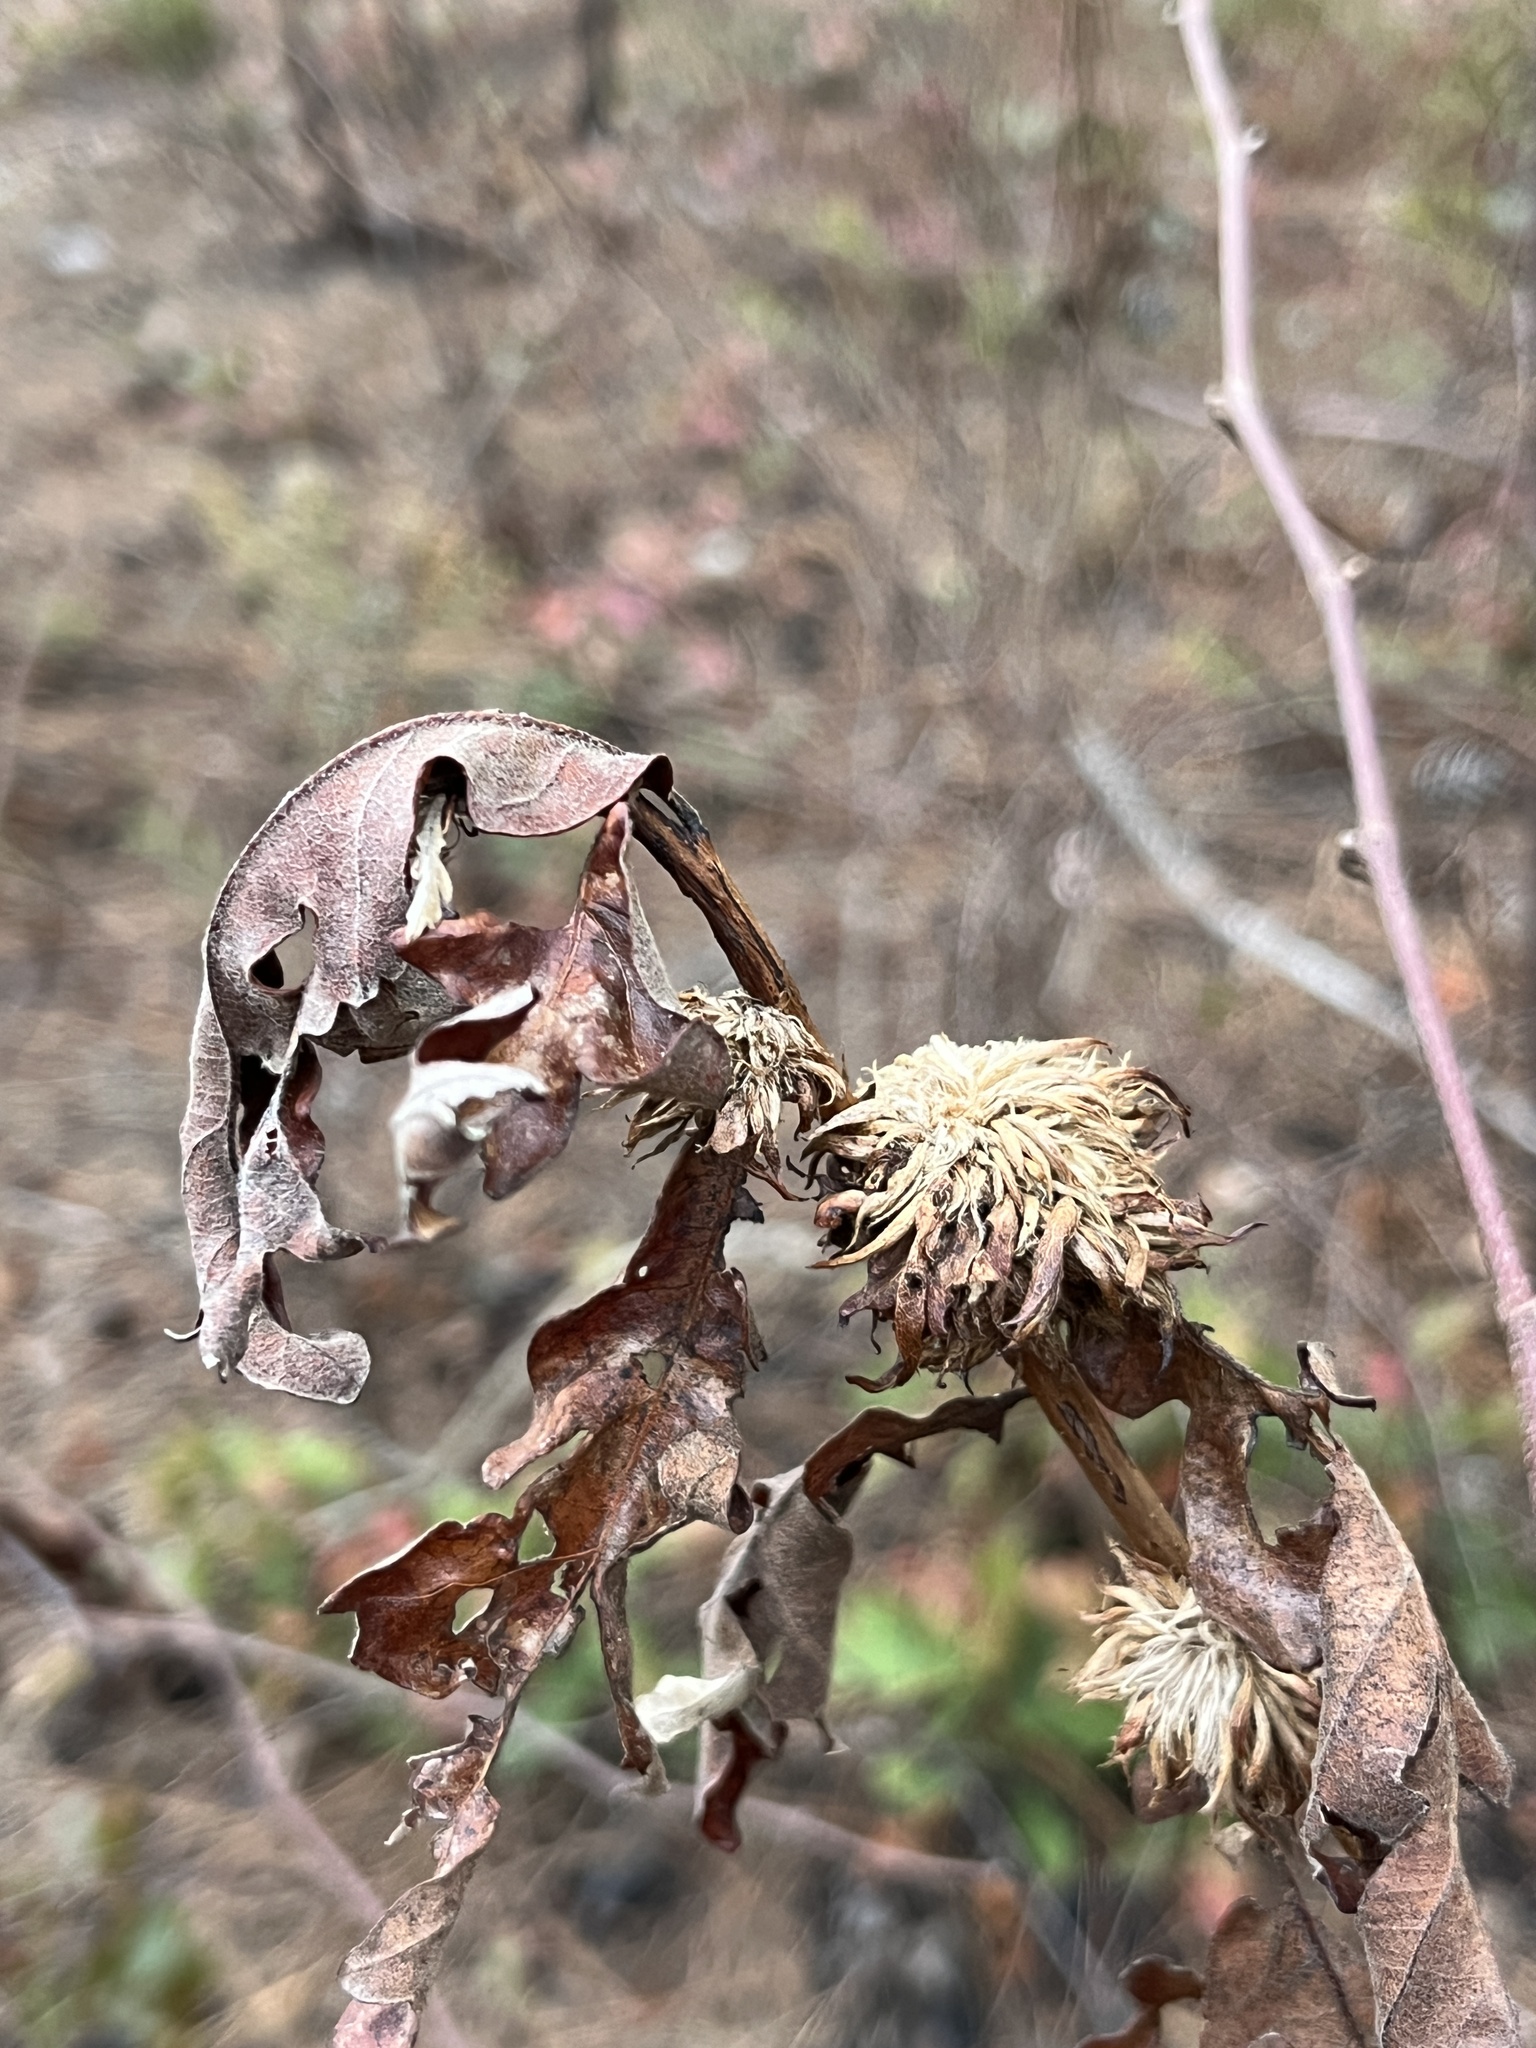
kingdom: Animalia
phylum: Arthropoda
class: Insecta
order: Hymenoptera
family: Cynipidae
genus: Andricus
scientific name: Andricus
